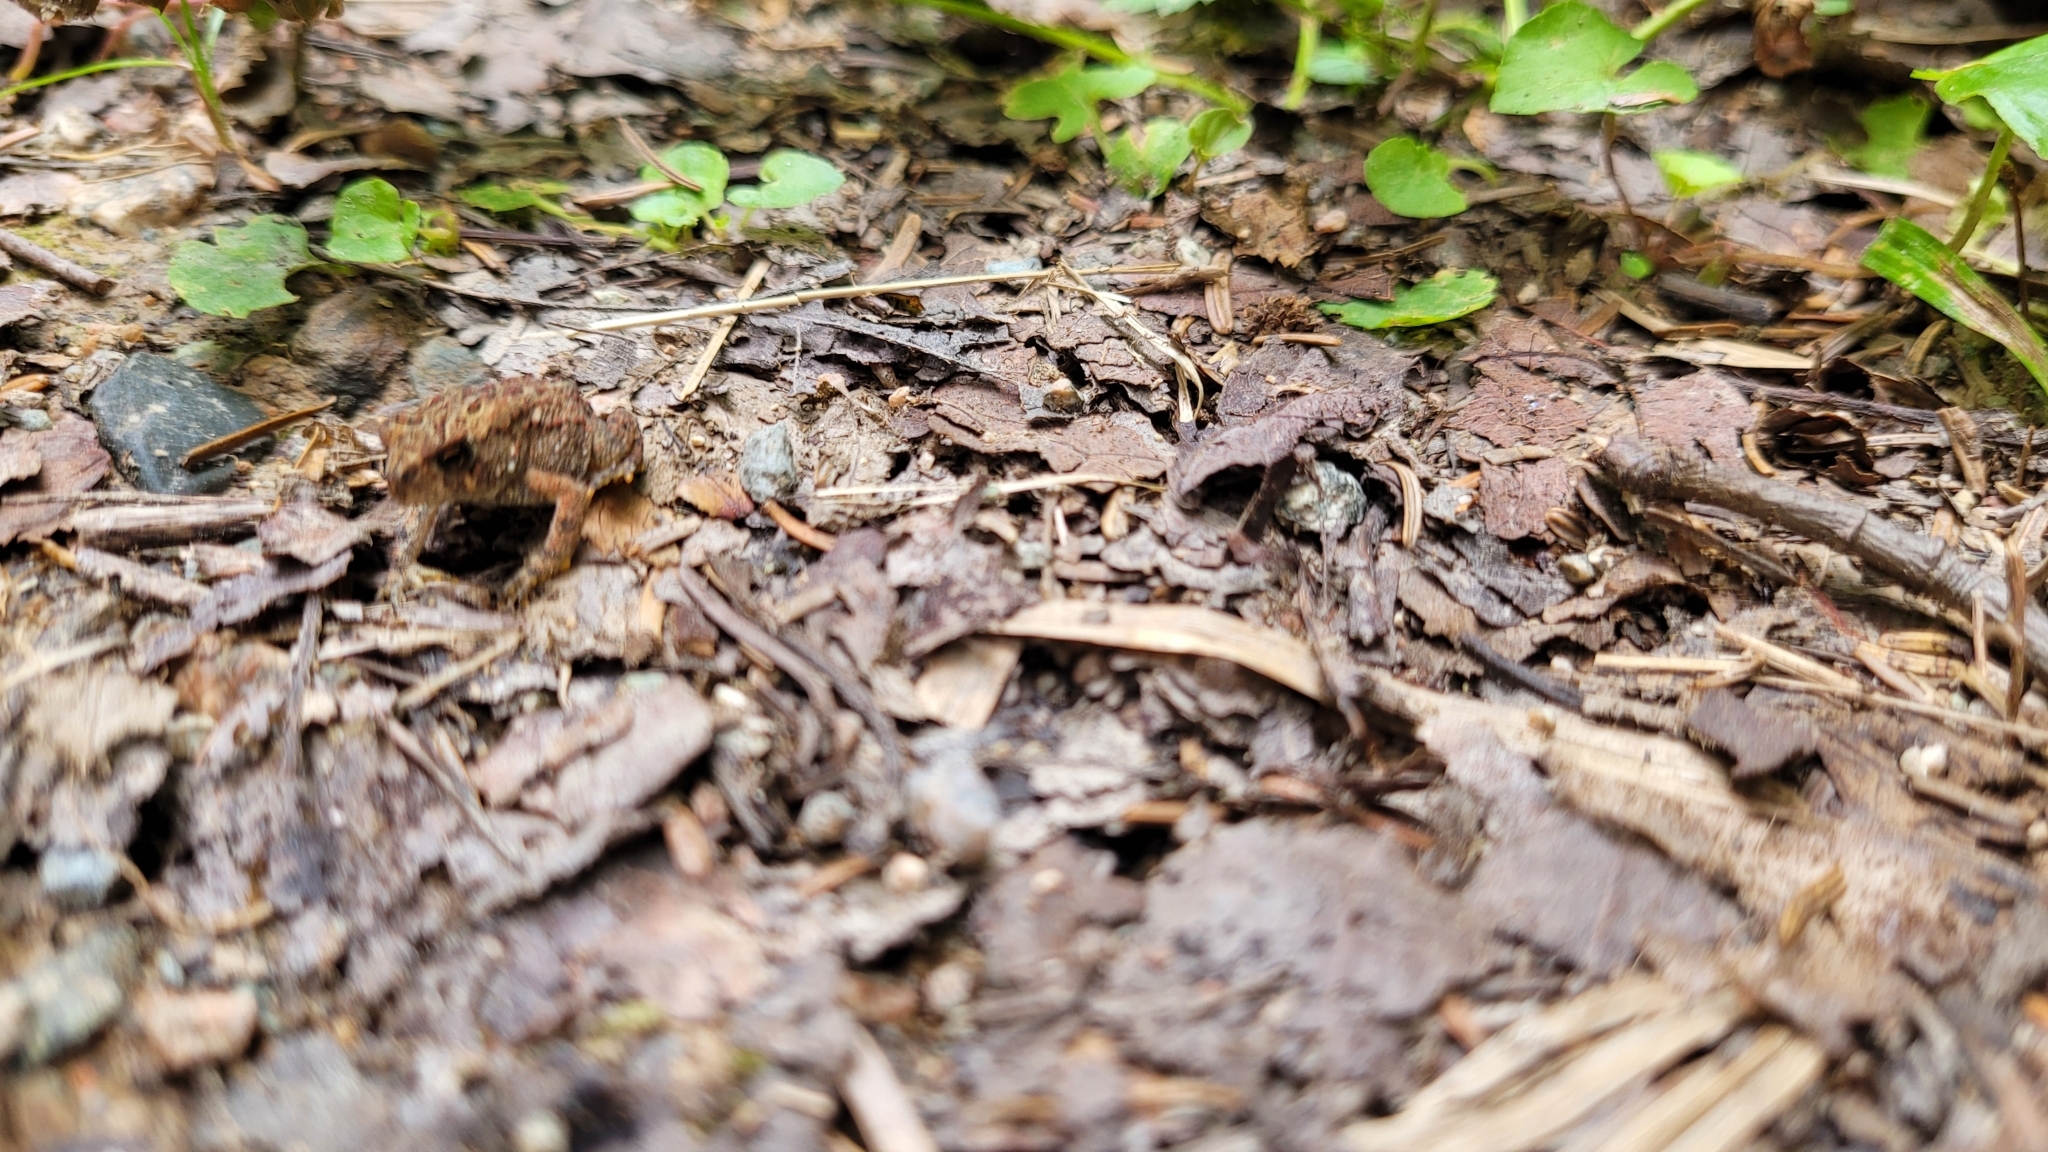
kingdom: Animalia
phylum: Chordata
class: Amphibia
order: Anura
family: Bufonidae
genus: Anaxyrus
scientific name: Anaxyrus americanus
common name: American toad
